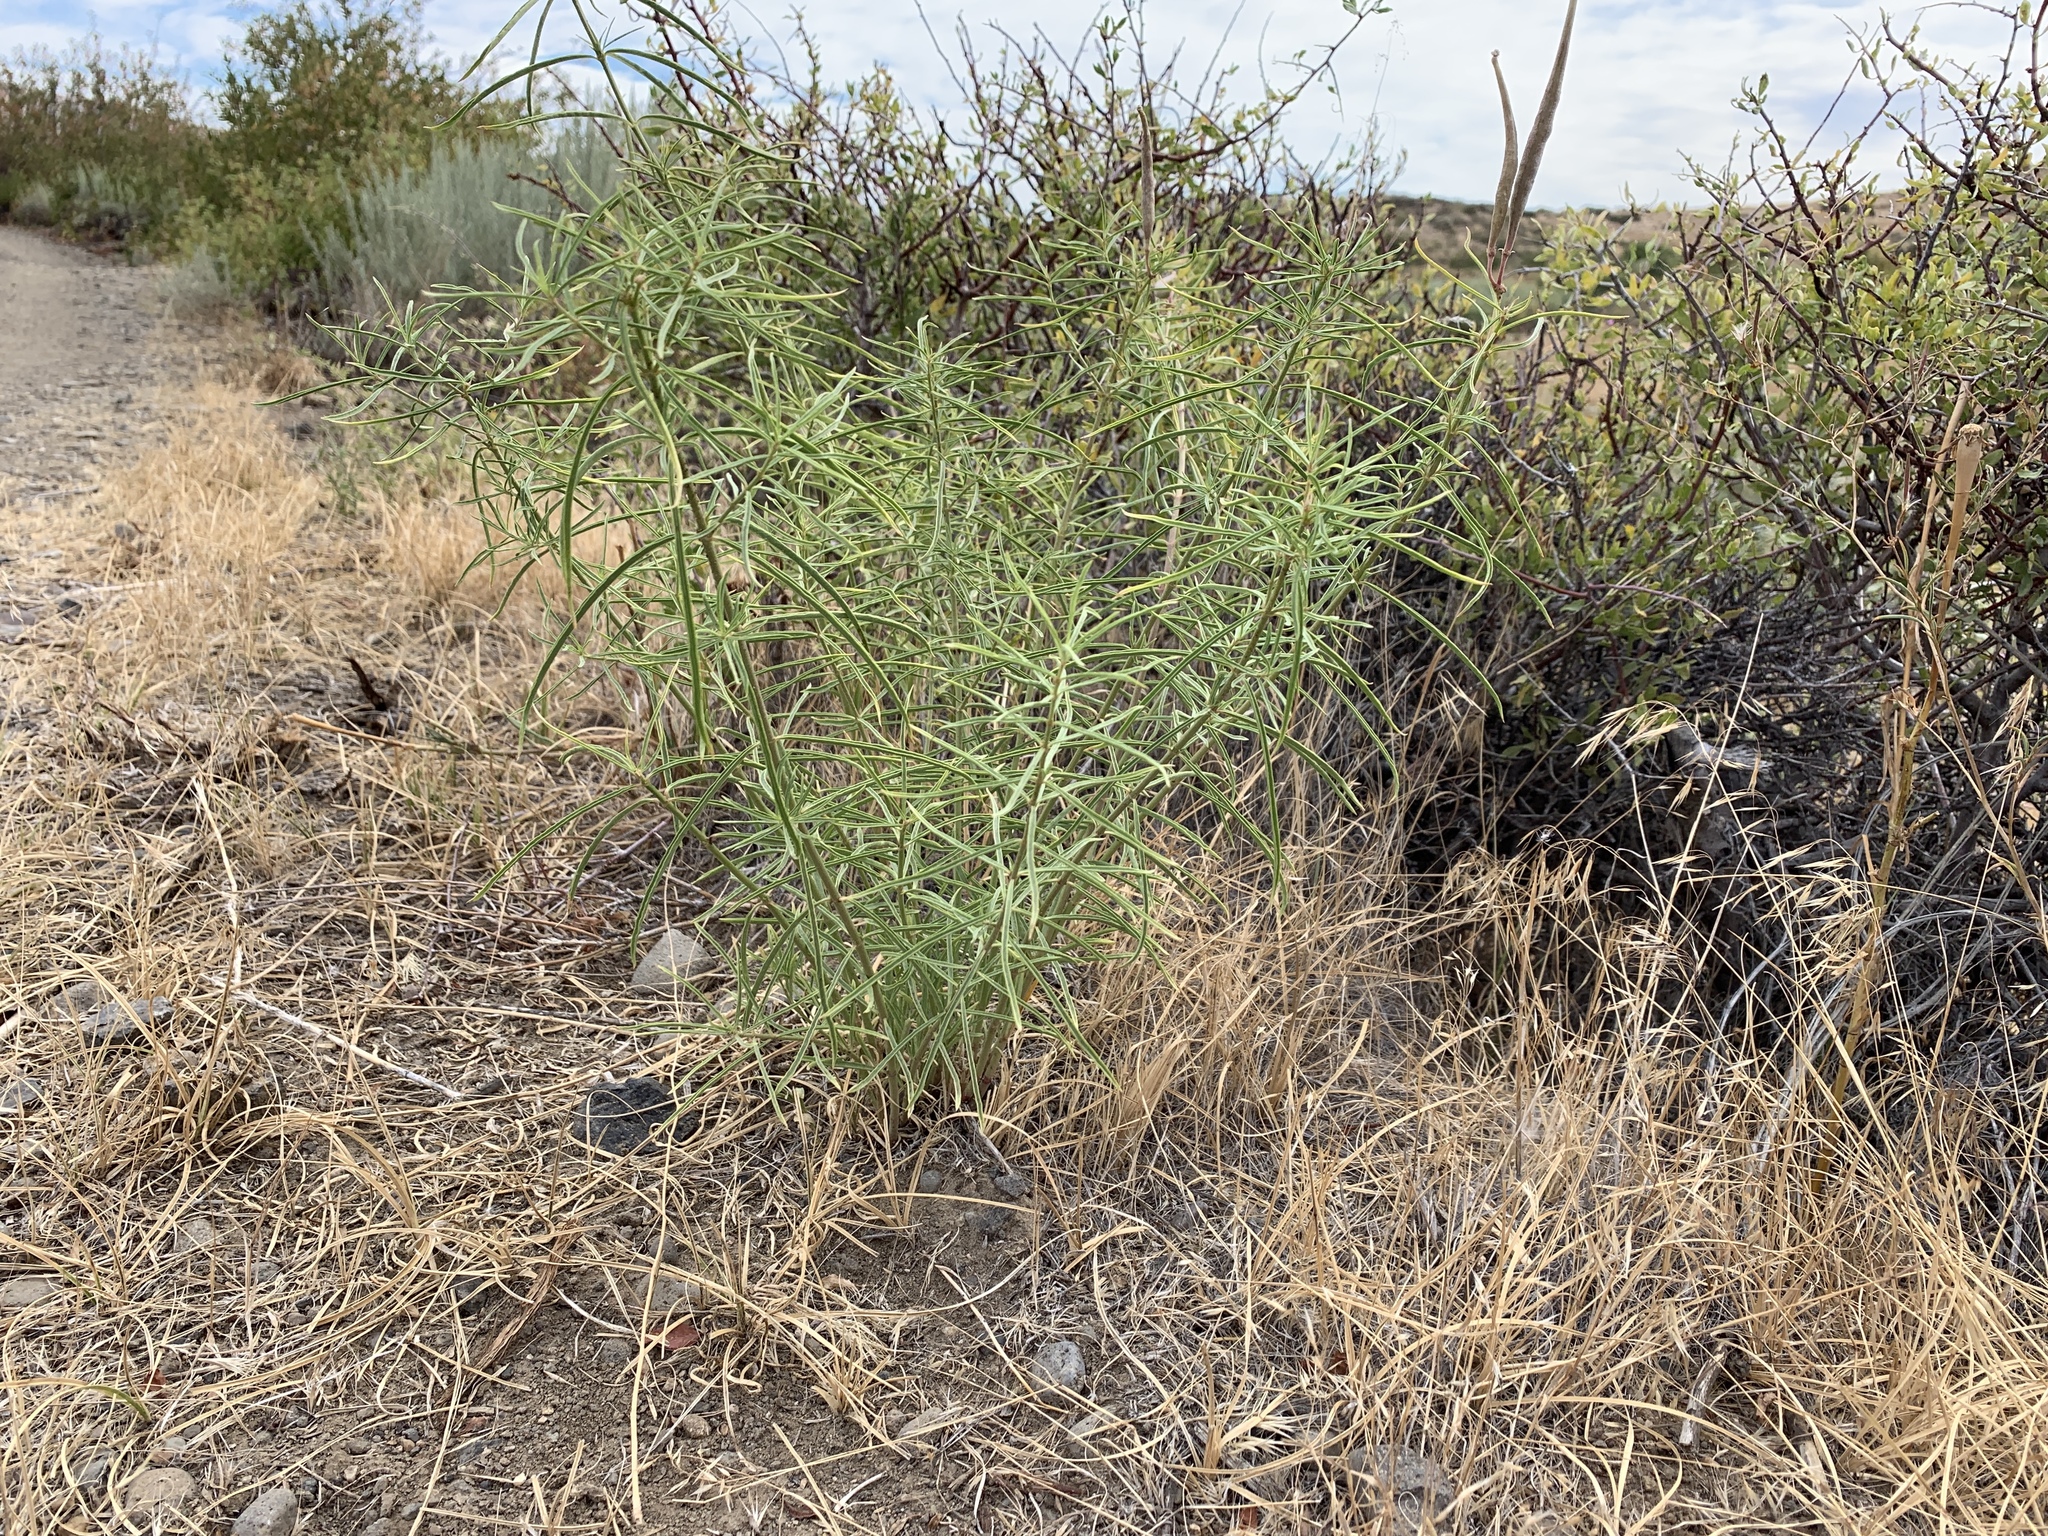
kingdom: Plantae
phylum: Tracheophyta
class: Magnoliopsida
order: Gentianales
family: Apocynaceae
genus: Asclepias
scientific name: Asclepias fascicularis
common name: Mexican milkweed
